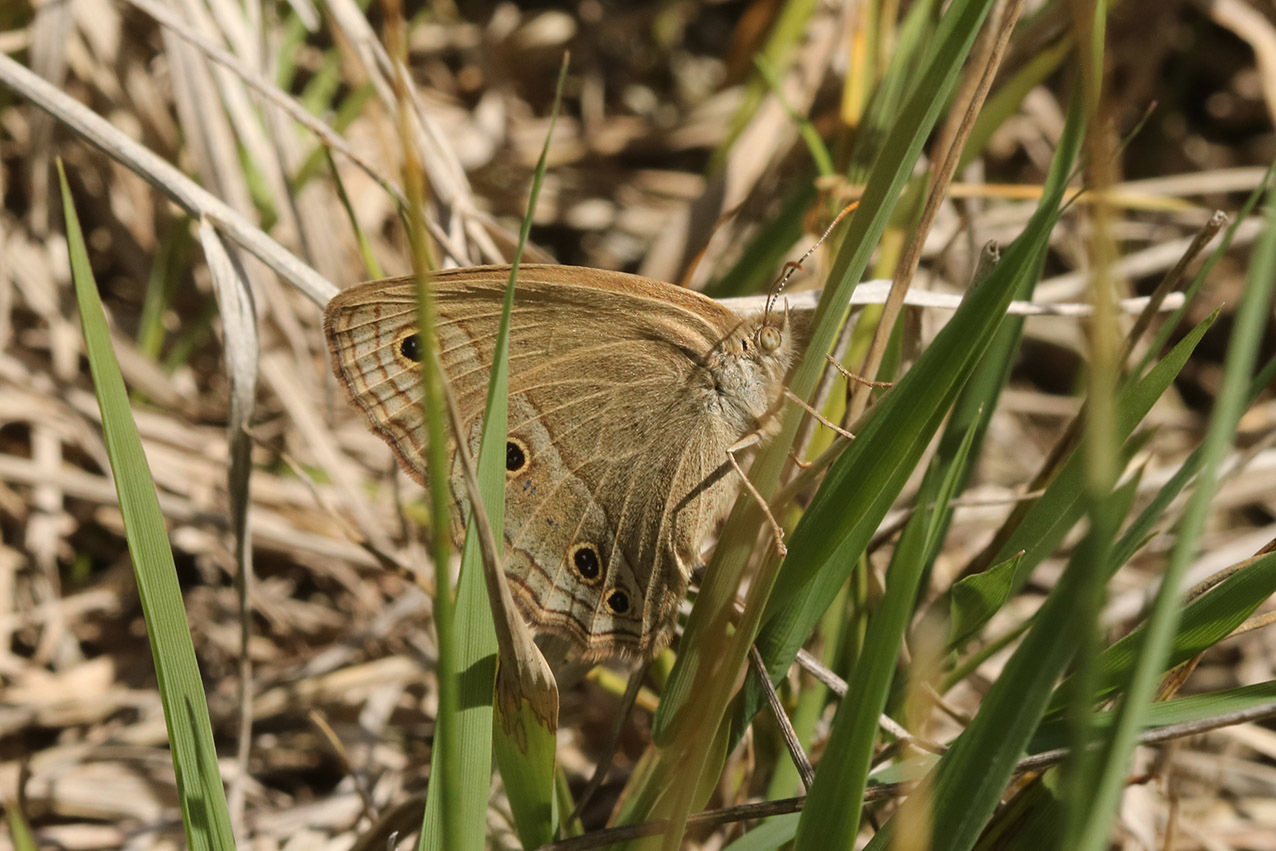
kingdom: Animalia
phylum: Arthropoda
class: Insecta
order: Lepidoptera
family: Nymphalidae
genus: Stegosatyrus
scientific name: Stegosatyrus periphas
